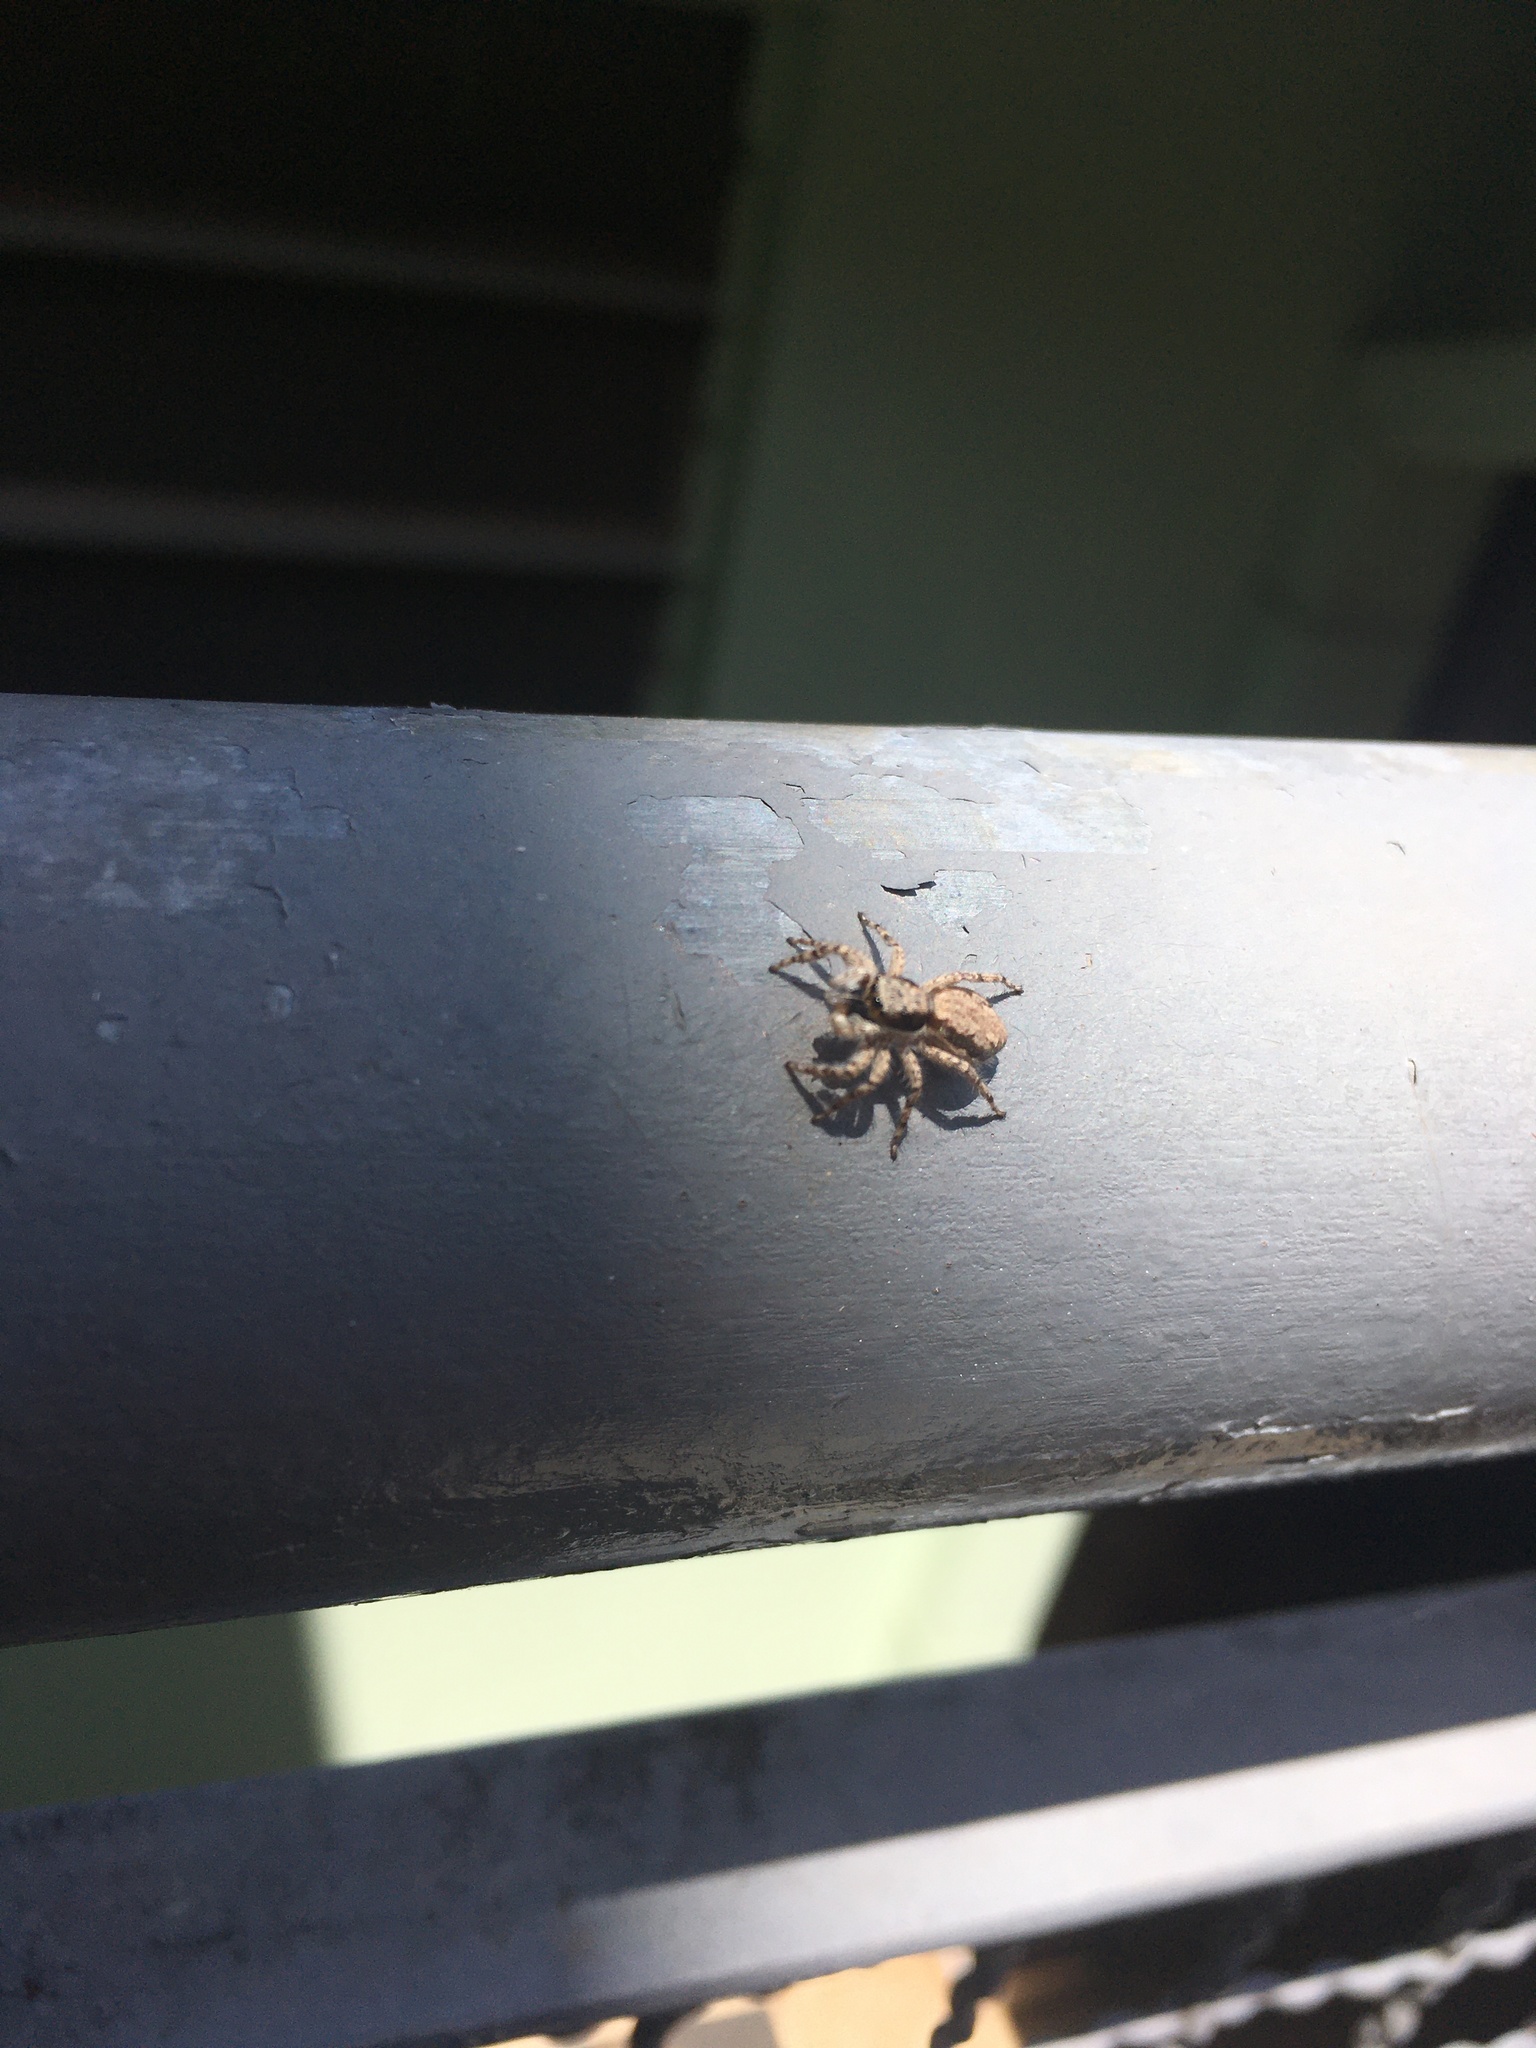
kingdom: Animalia
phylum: Arthropoda
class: Arachnida
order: Araneae
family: Salticidae
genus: Menemerus
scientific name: Menemerus bivittatus
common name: Gray wall jumper
